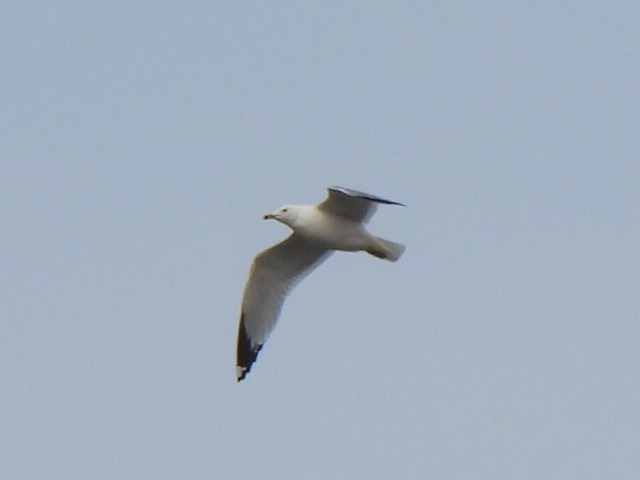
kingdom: Animalia
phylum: Chordata
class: Aves
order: Charadriiformes
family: Laridae
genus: Larus
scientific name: Larus delawarensis
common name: Ring-billed gull
